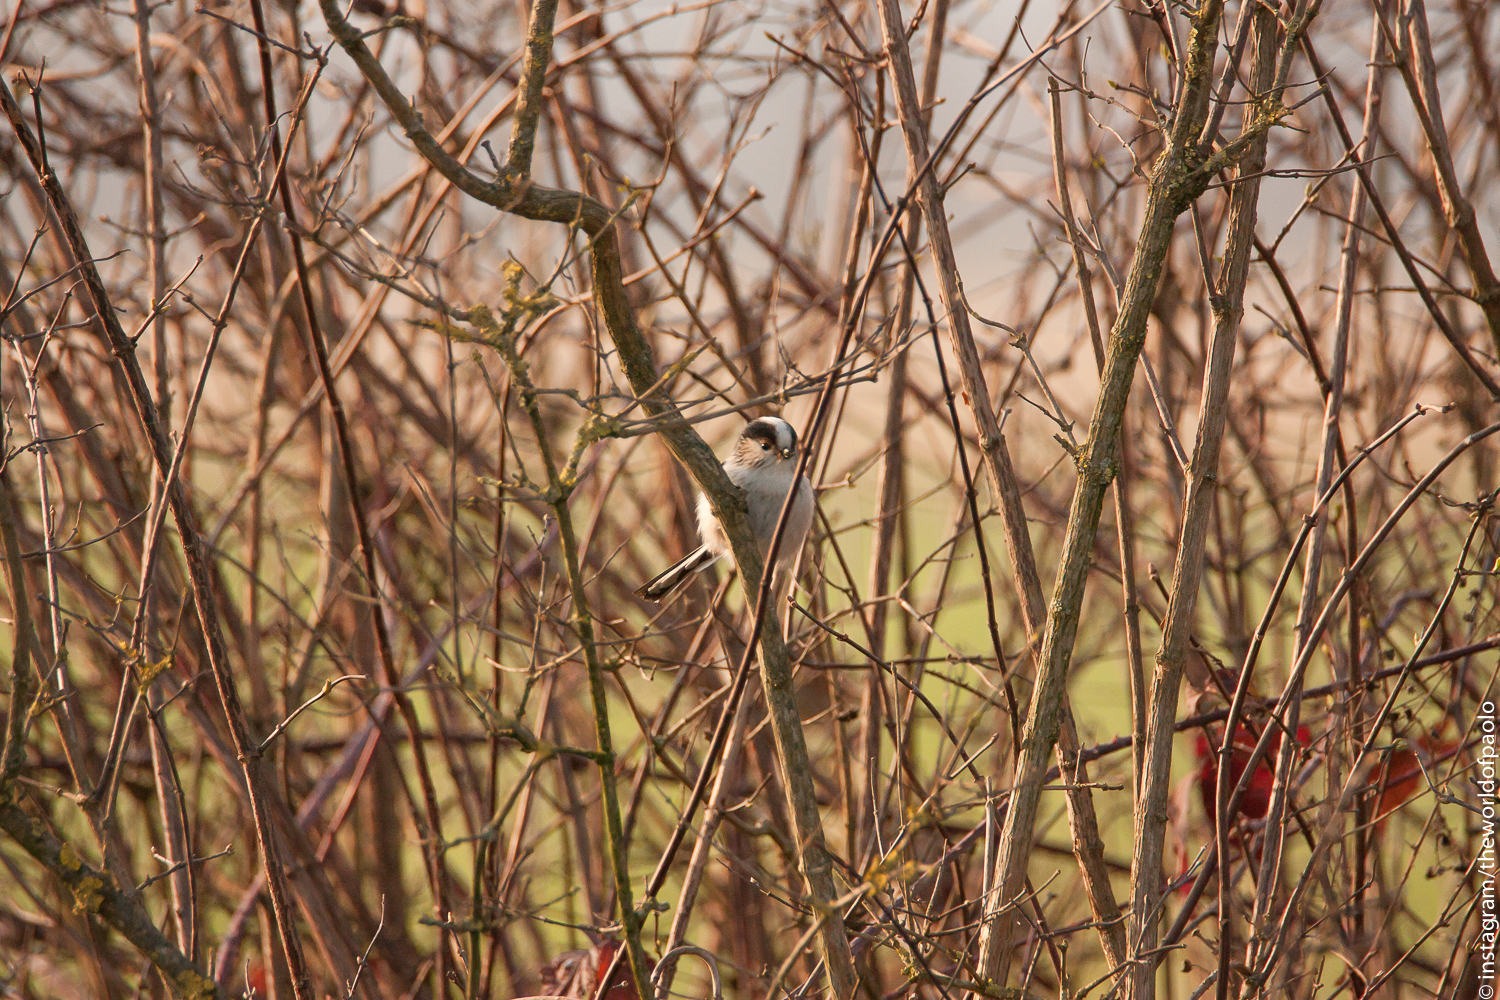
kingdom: Animalia
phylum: Chordata
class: Aves
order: Passeriformes
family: Aegithalidae
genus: Aegithalos
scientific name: Aegithalos caudatus
